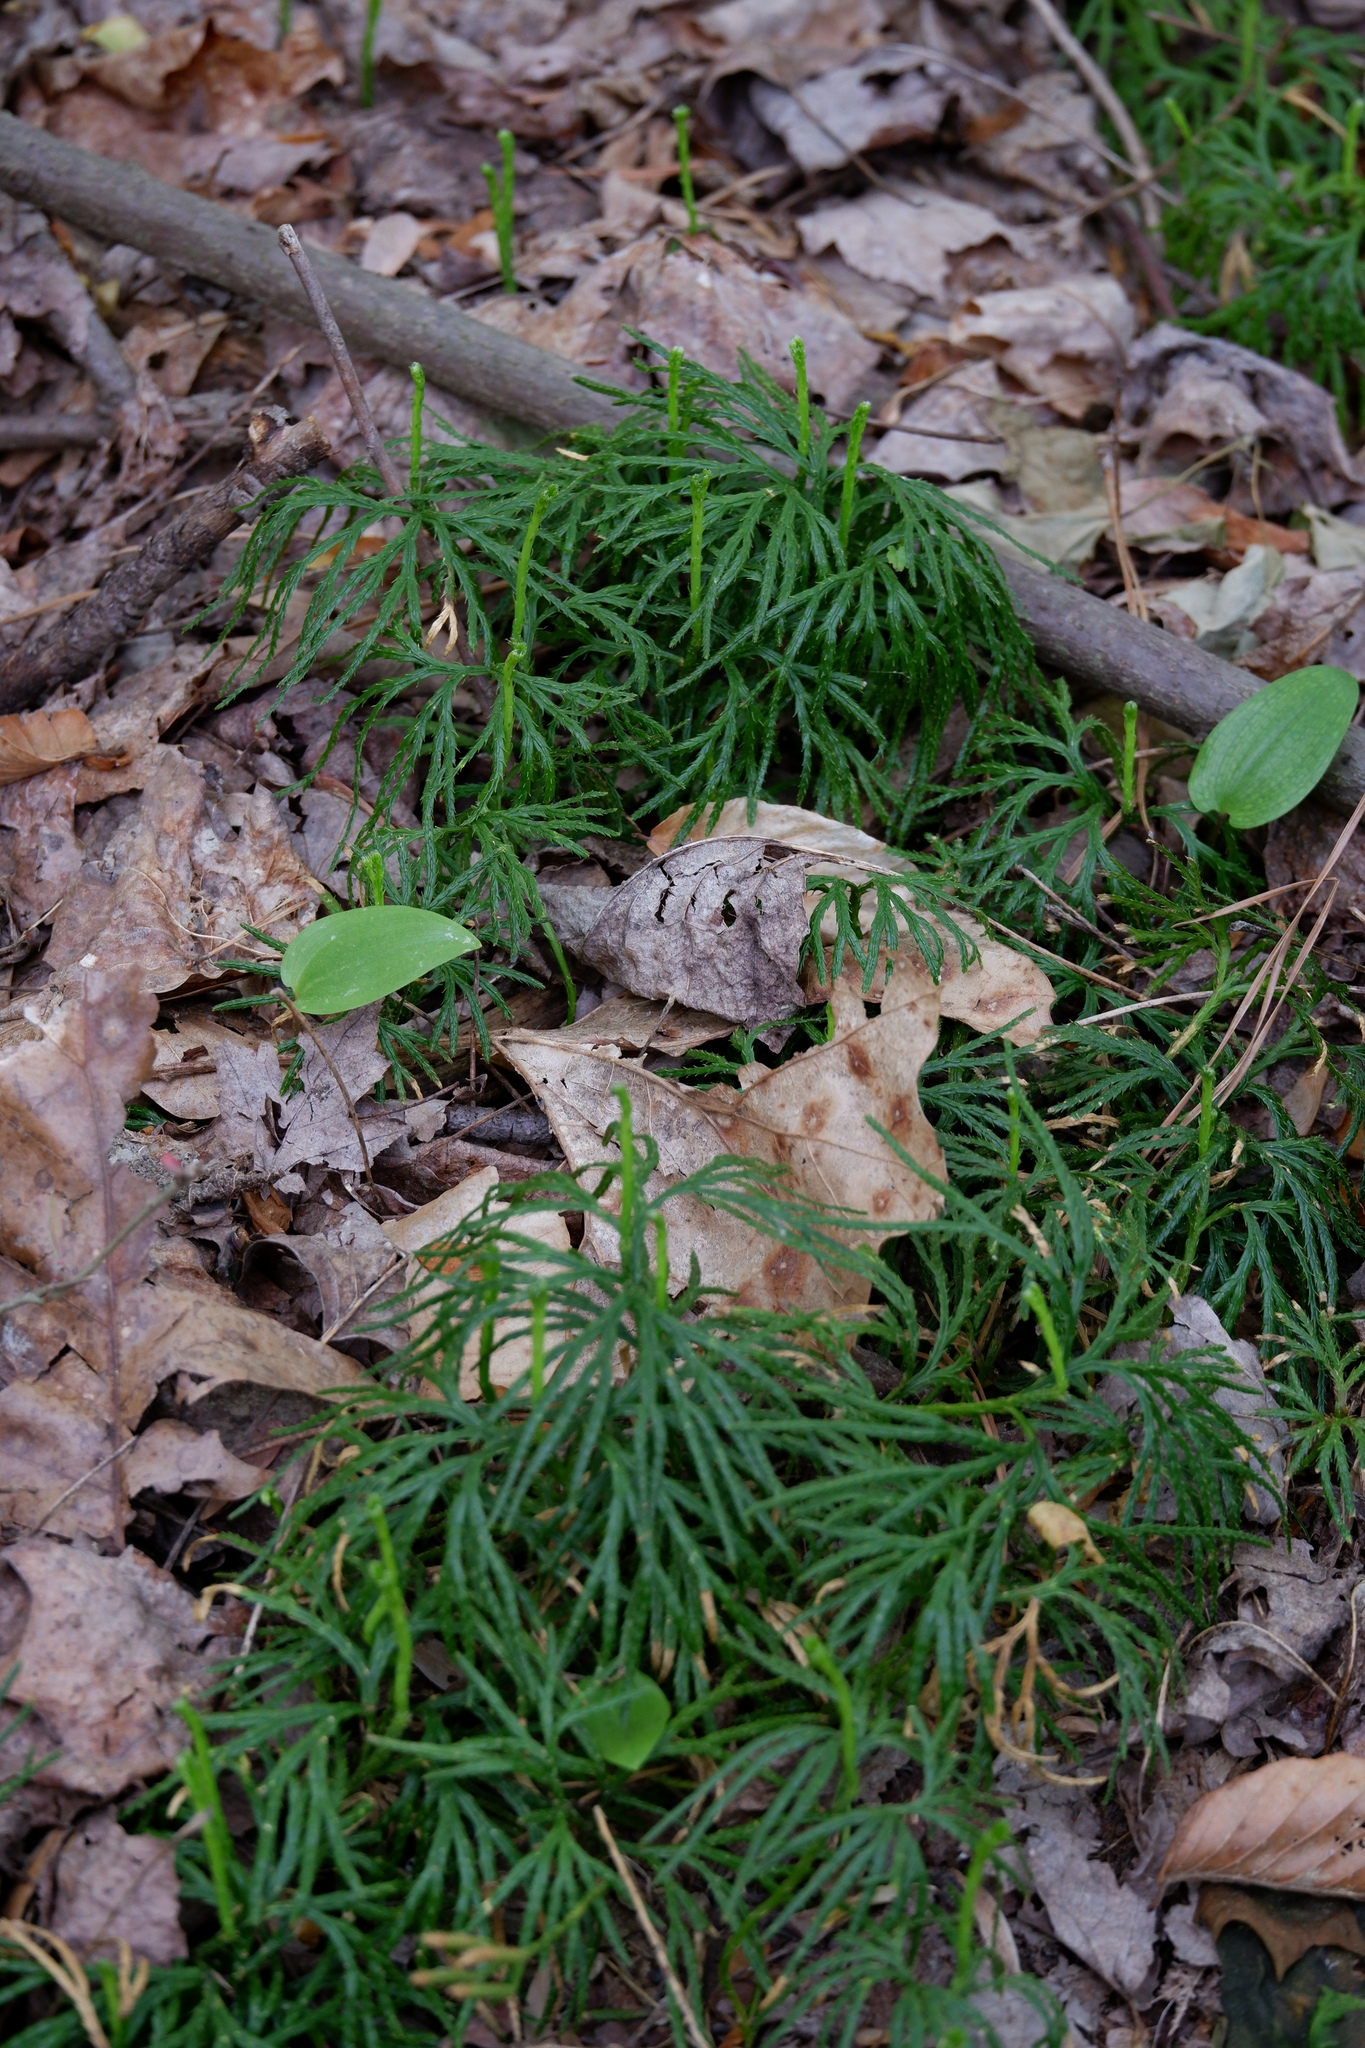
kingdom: Plantae
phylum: Tracheophyta
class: Lycopodiopsida
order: Lycopodiales
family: Lycopodiaceae
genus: Diphasiastrum
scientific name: Diphasiastrum digitatum
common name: Southern running-pine
